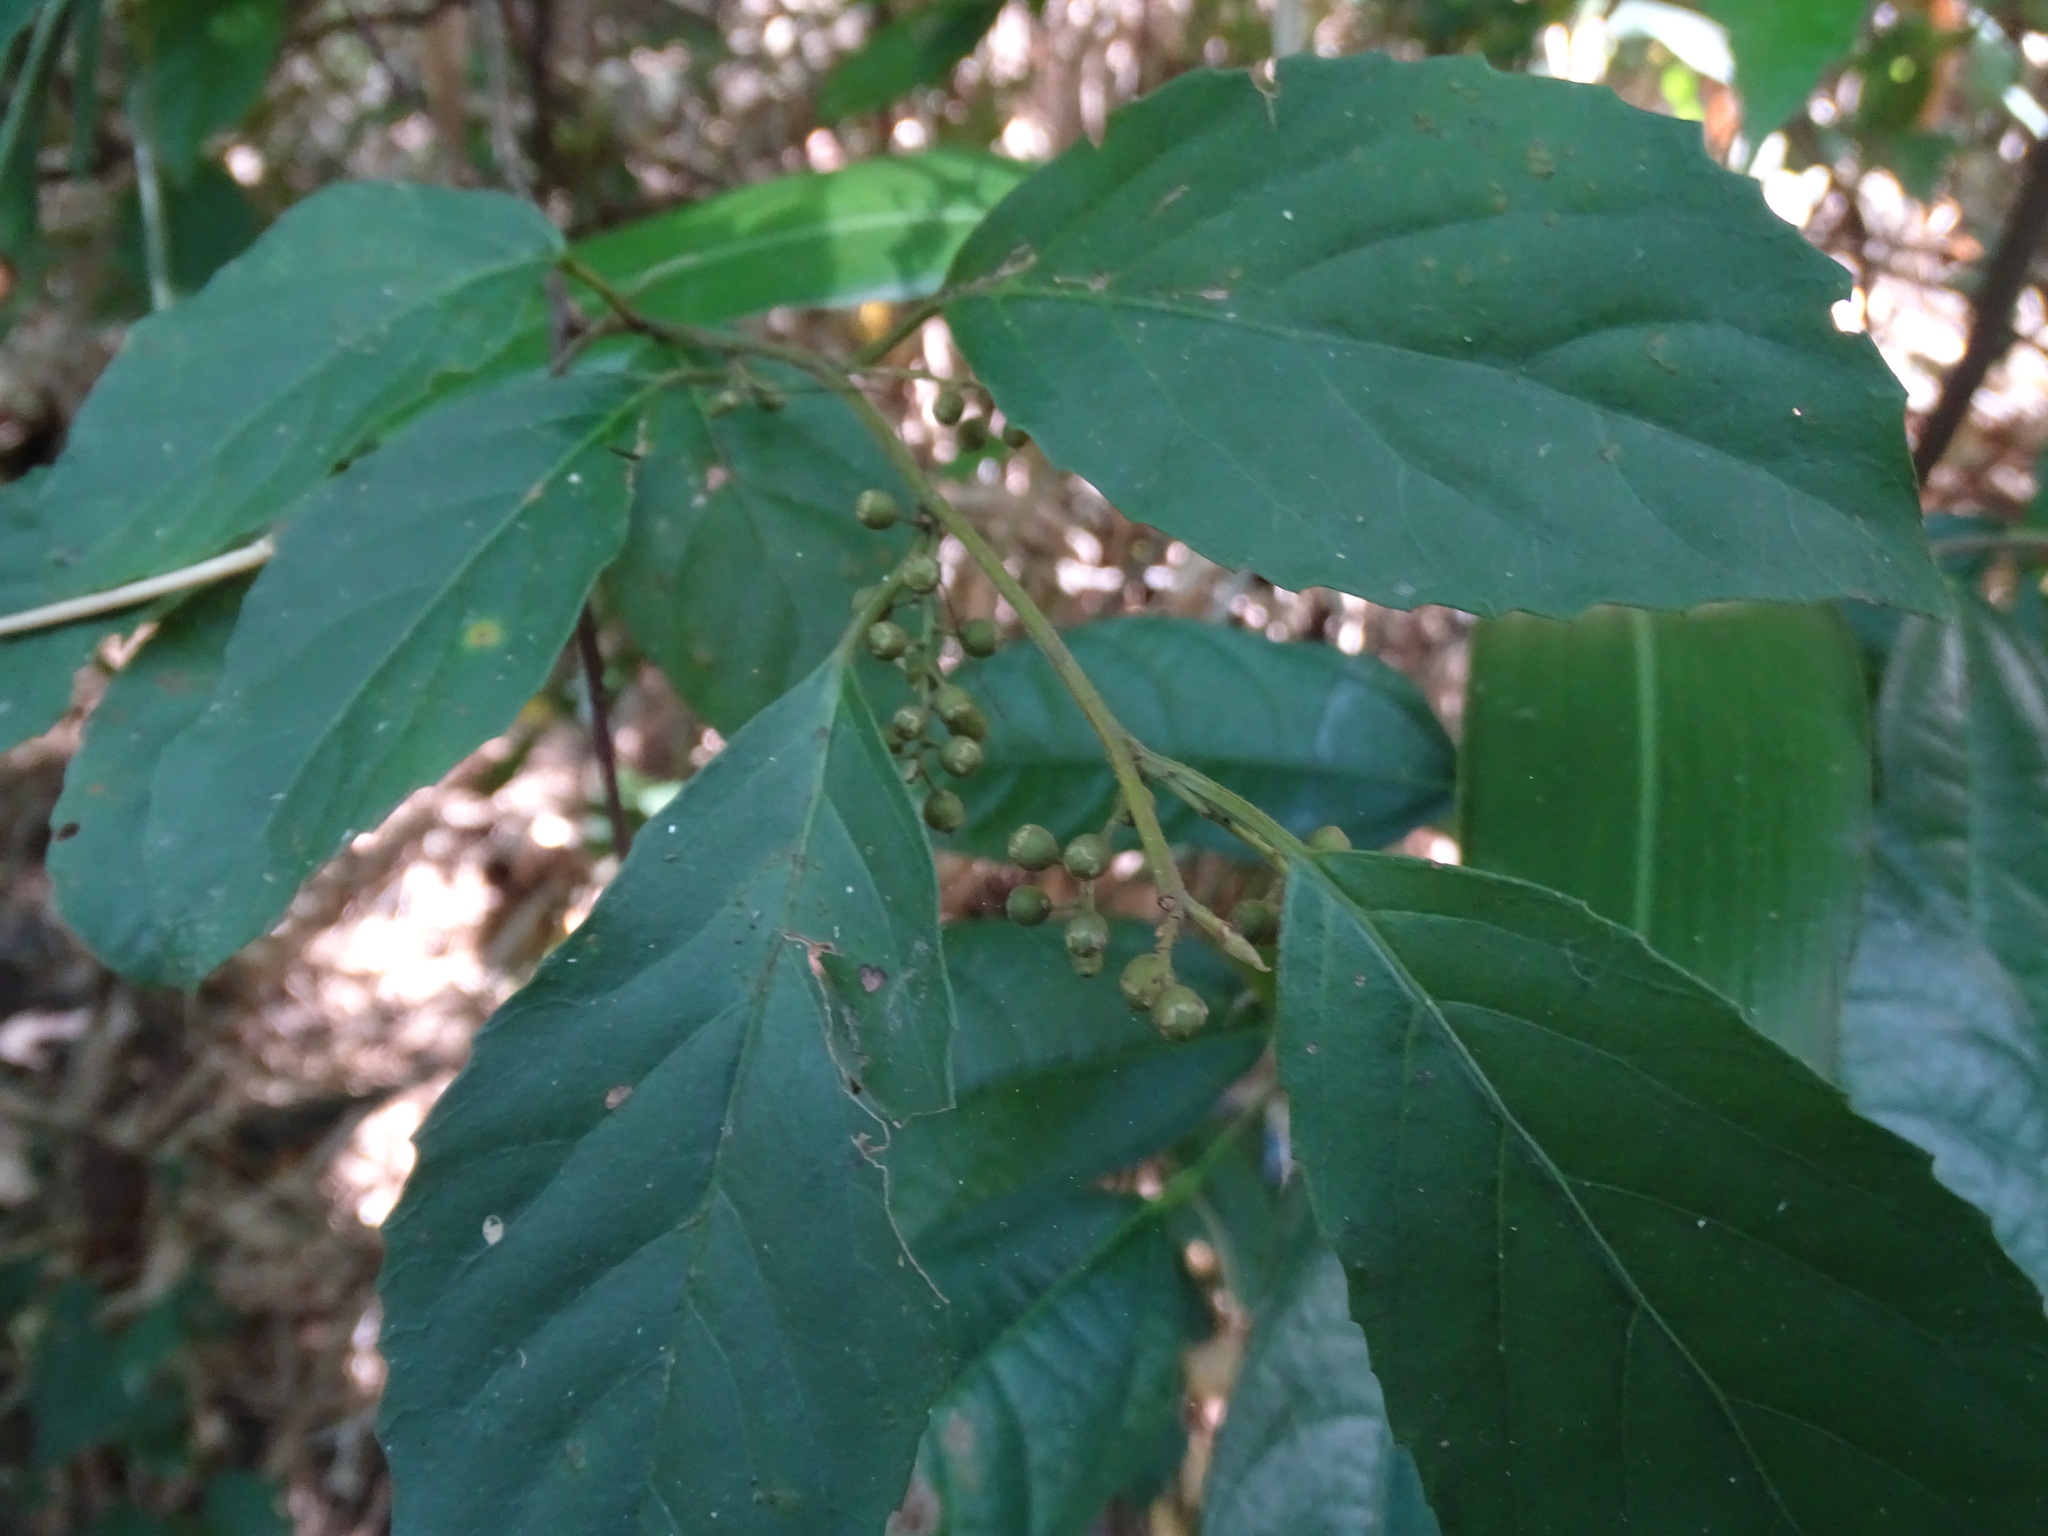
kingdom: Plantae
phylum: Tracheophyta
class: Magnoliopsida
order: Ericales
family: Primulaceae
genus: Maesa
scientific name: Maesa perlaria
